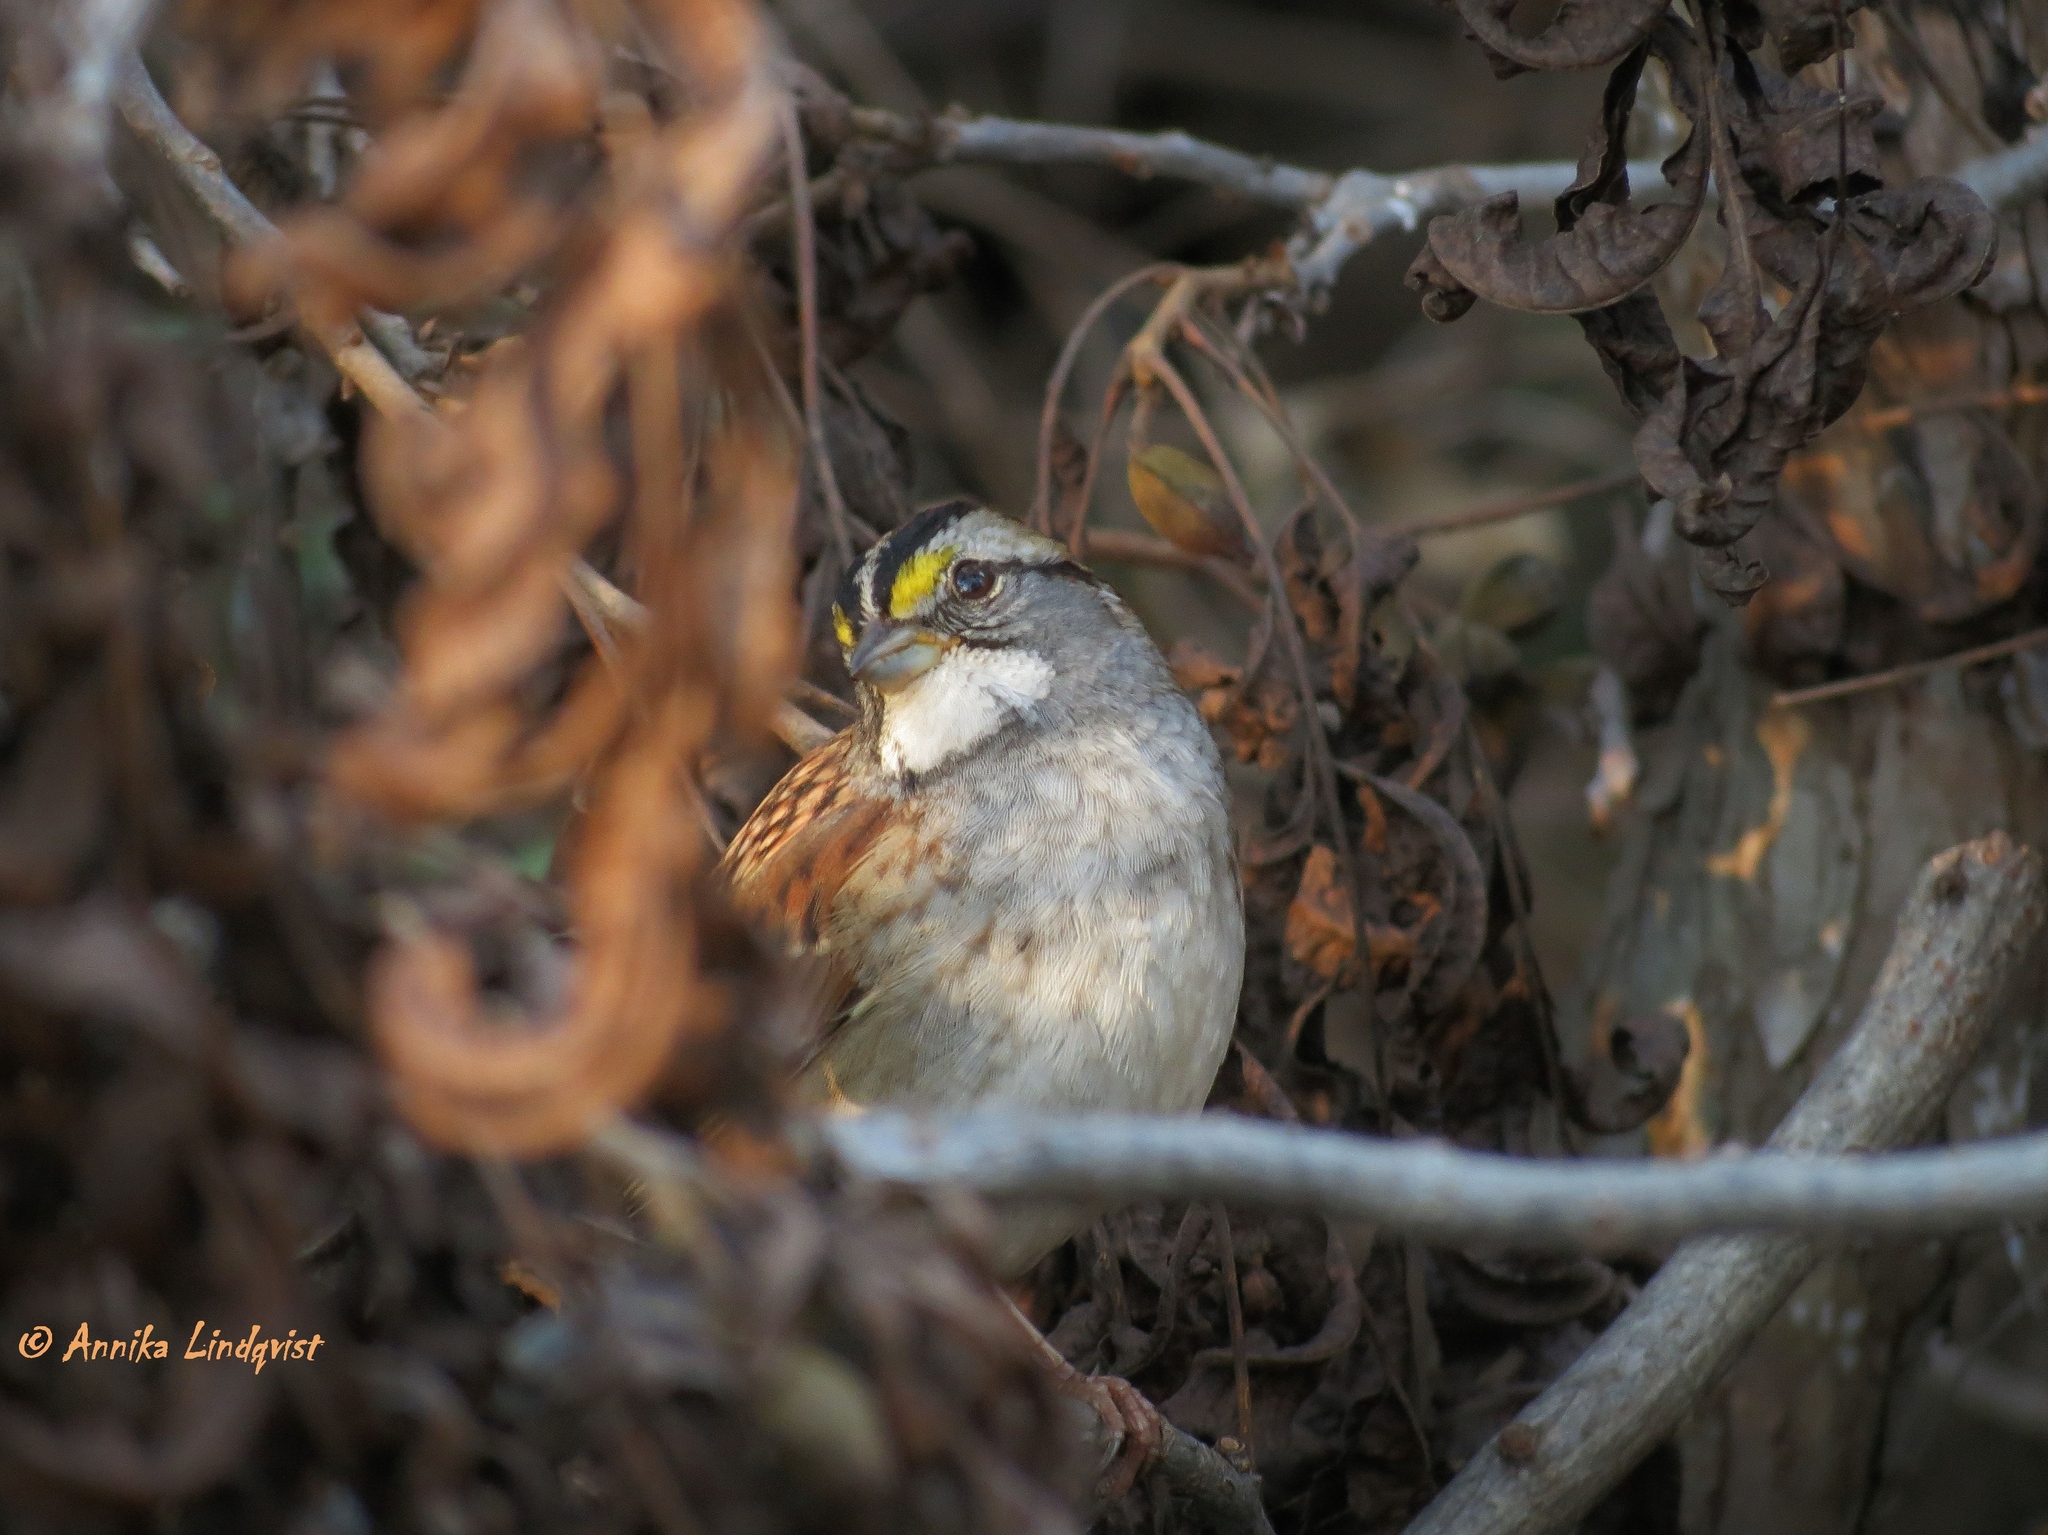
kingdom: Animalia
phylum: Chordata
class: Aves
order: Passeriformes
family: Passerellidae
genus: Zonotrichia
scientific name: Zonotrichia albicollis
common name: White-throated sparrow
